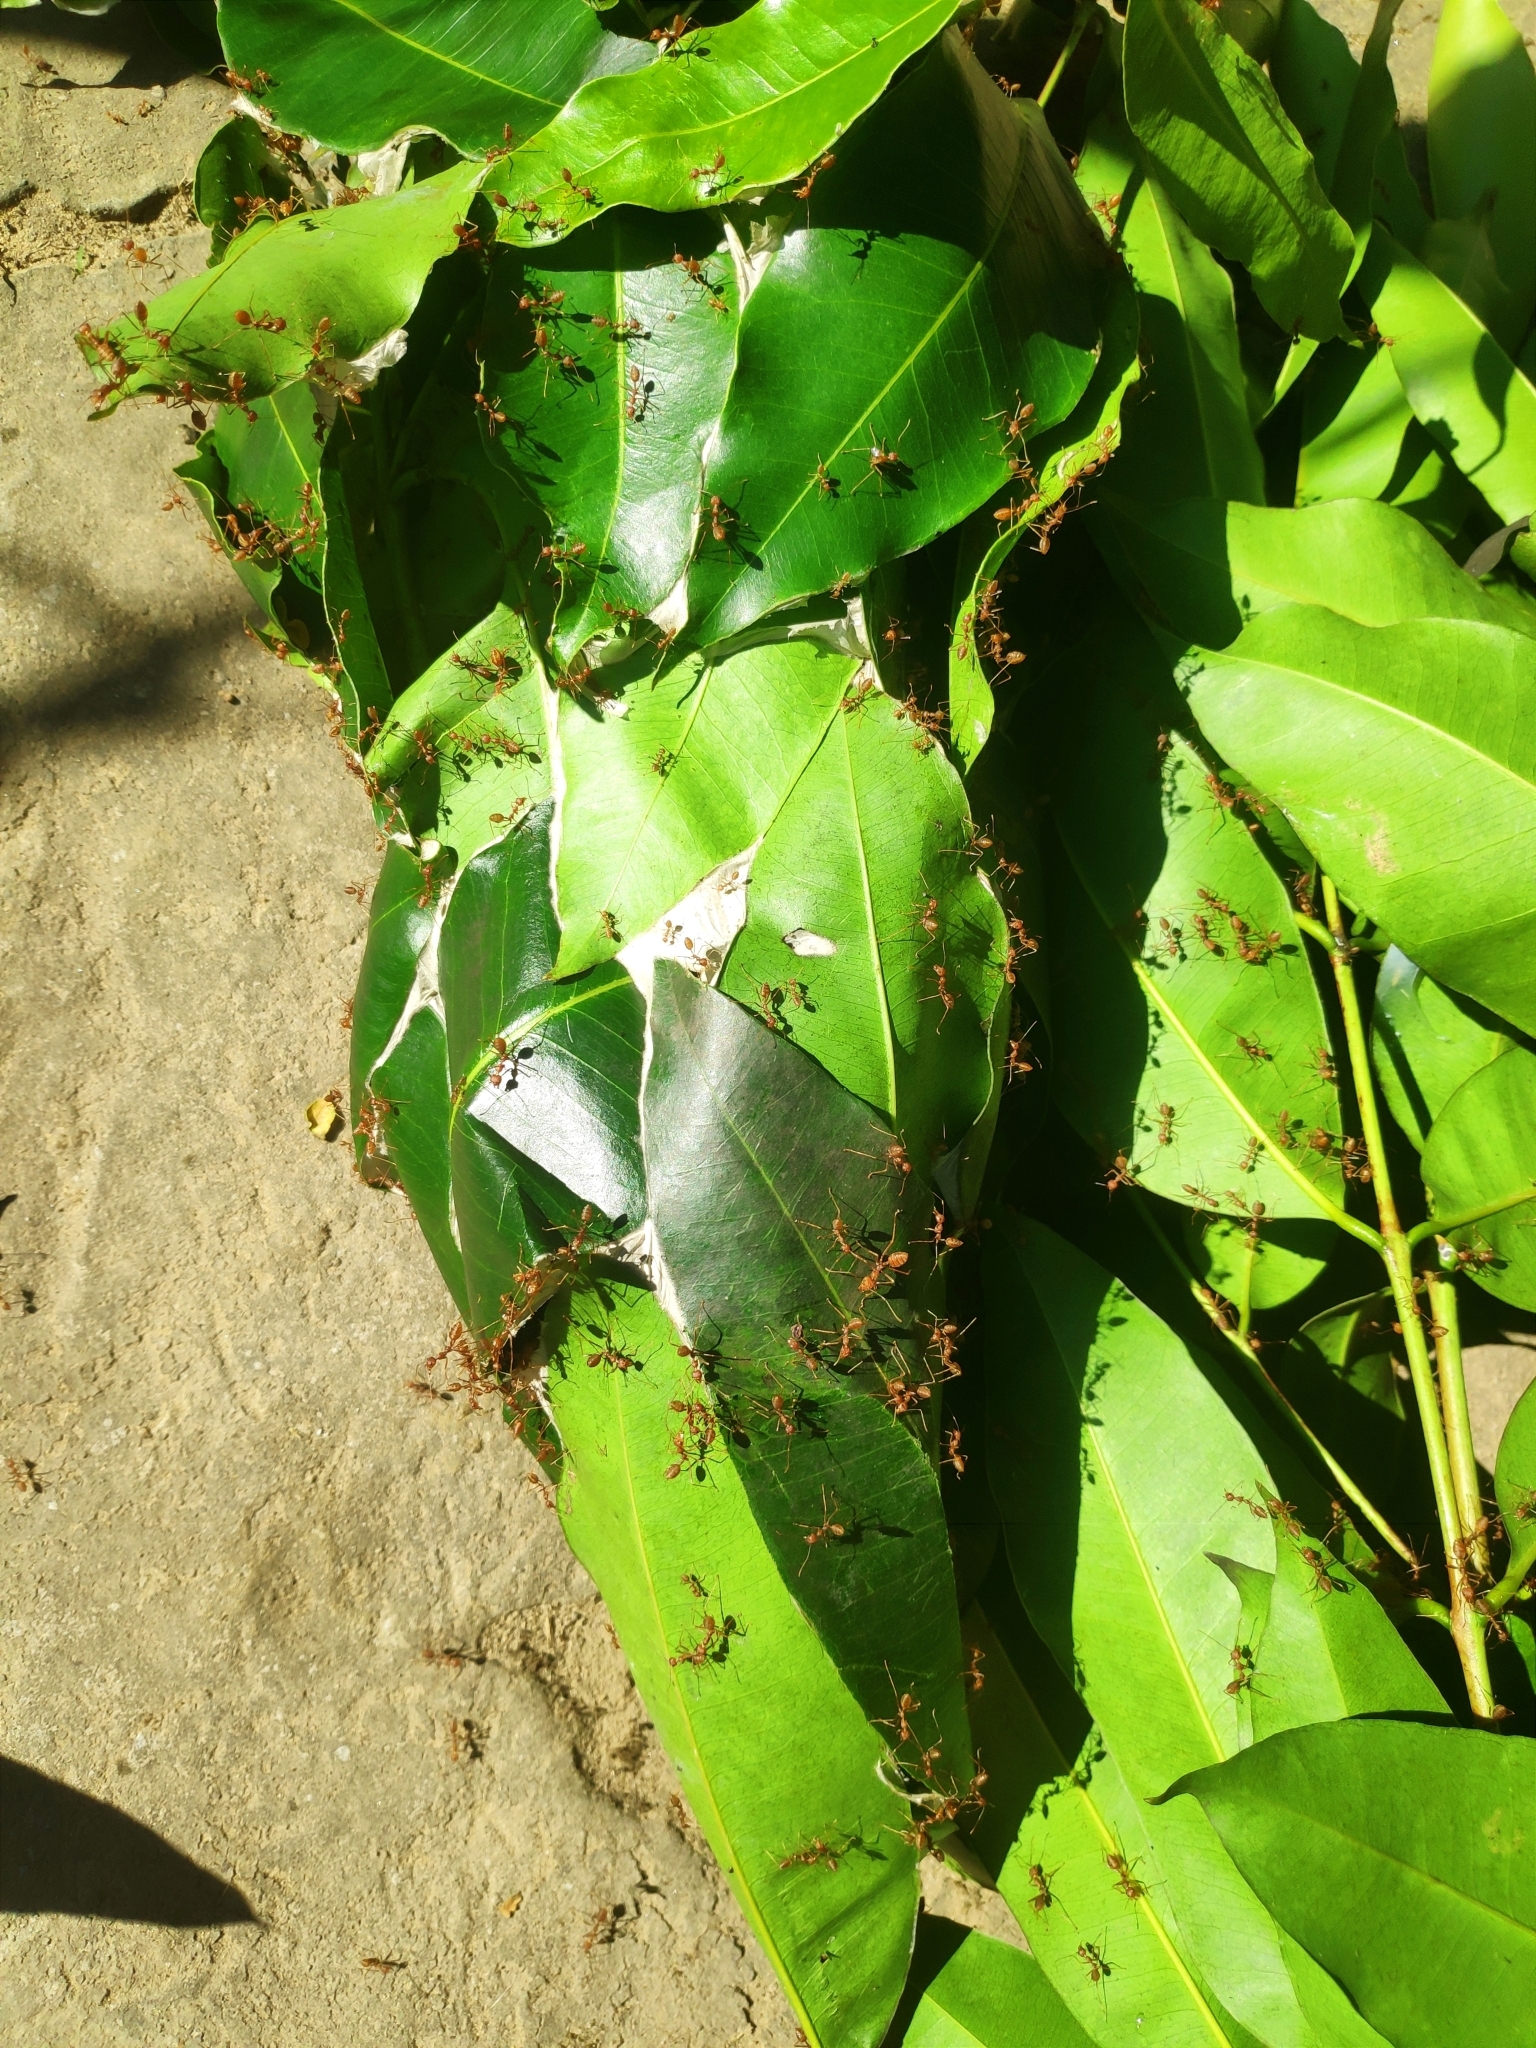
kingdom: Animalia
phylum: Arthropoda
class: Insecta
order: Hymenoptera
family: Formicidae
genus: Oecophylla
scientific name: Oecophylla smaragdina
